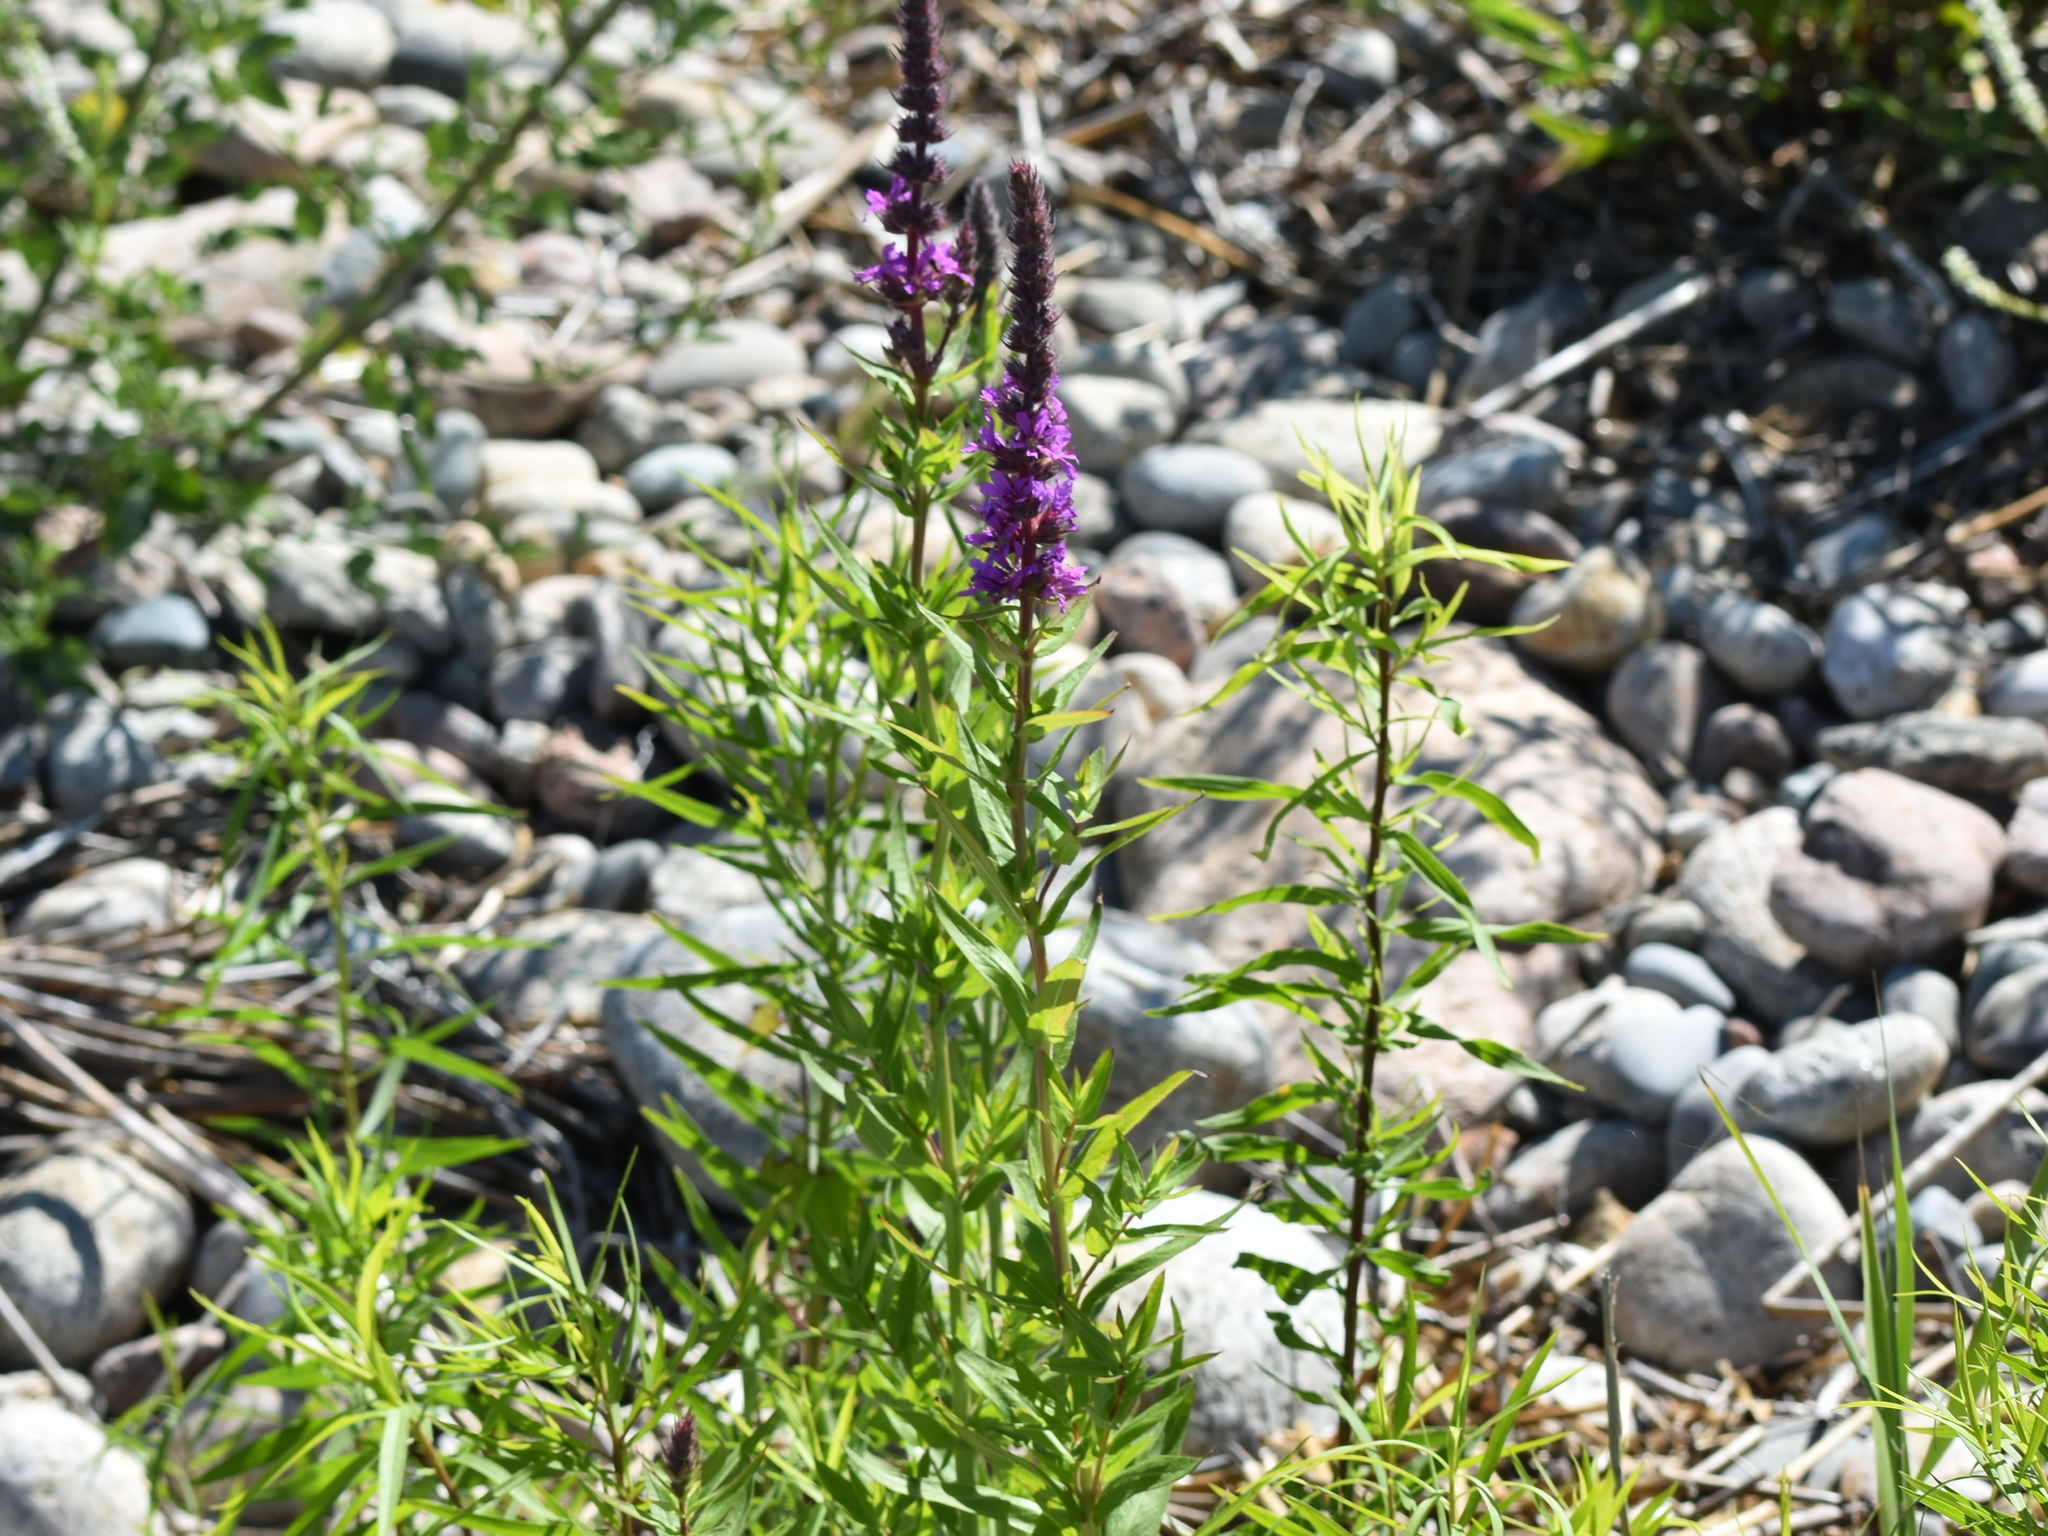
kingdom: Plantae
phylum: Tracheophyta
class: Magnoliopsida
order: Myrtales
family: Lythraceae
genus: Lythrum
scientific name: Lythrum salicaria
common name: Purple loosestrife
